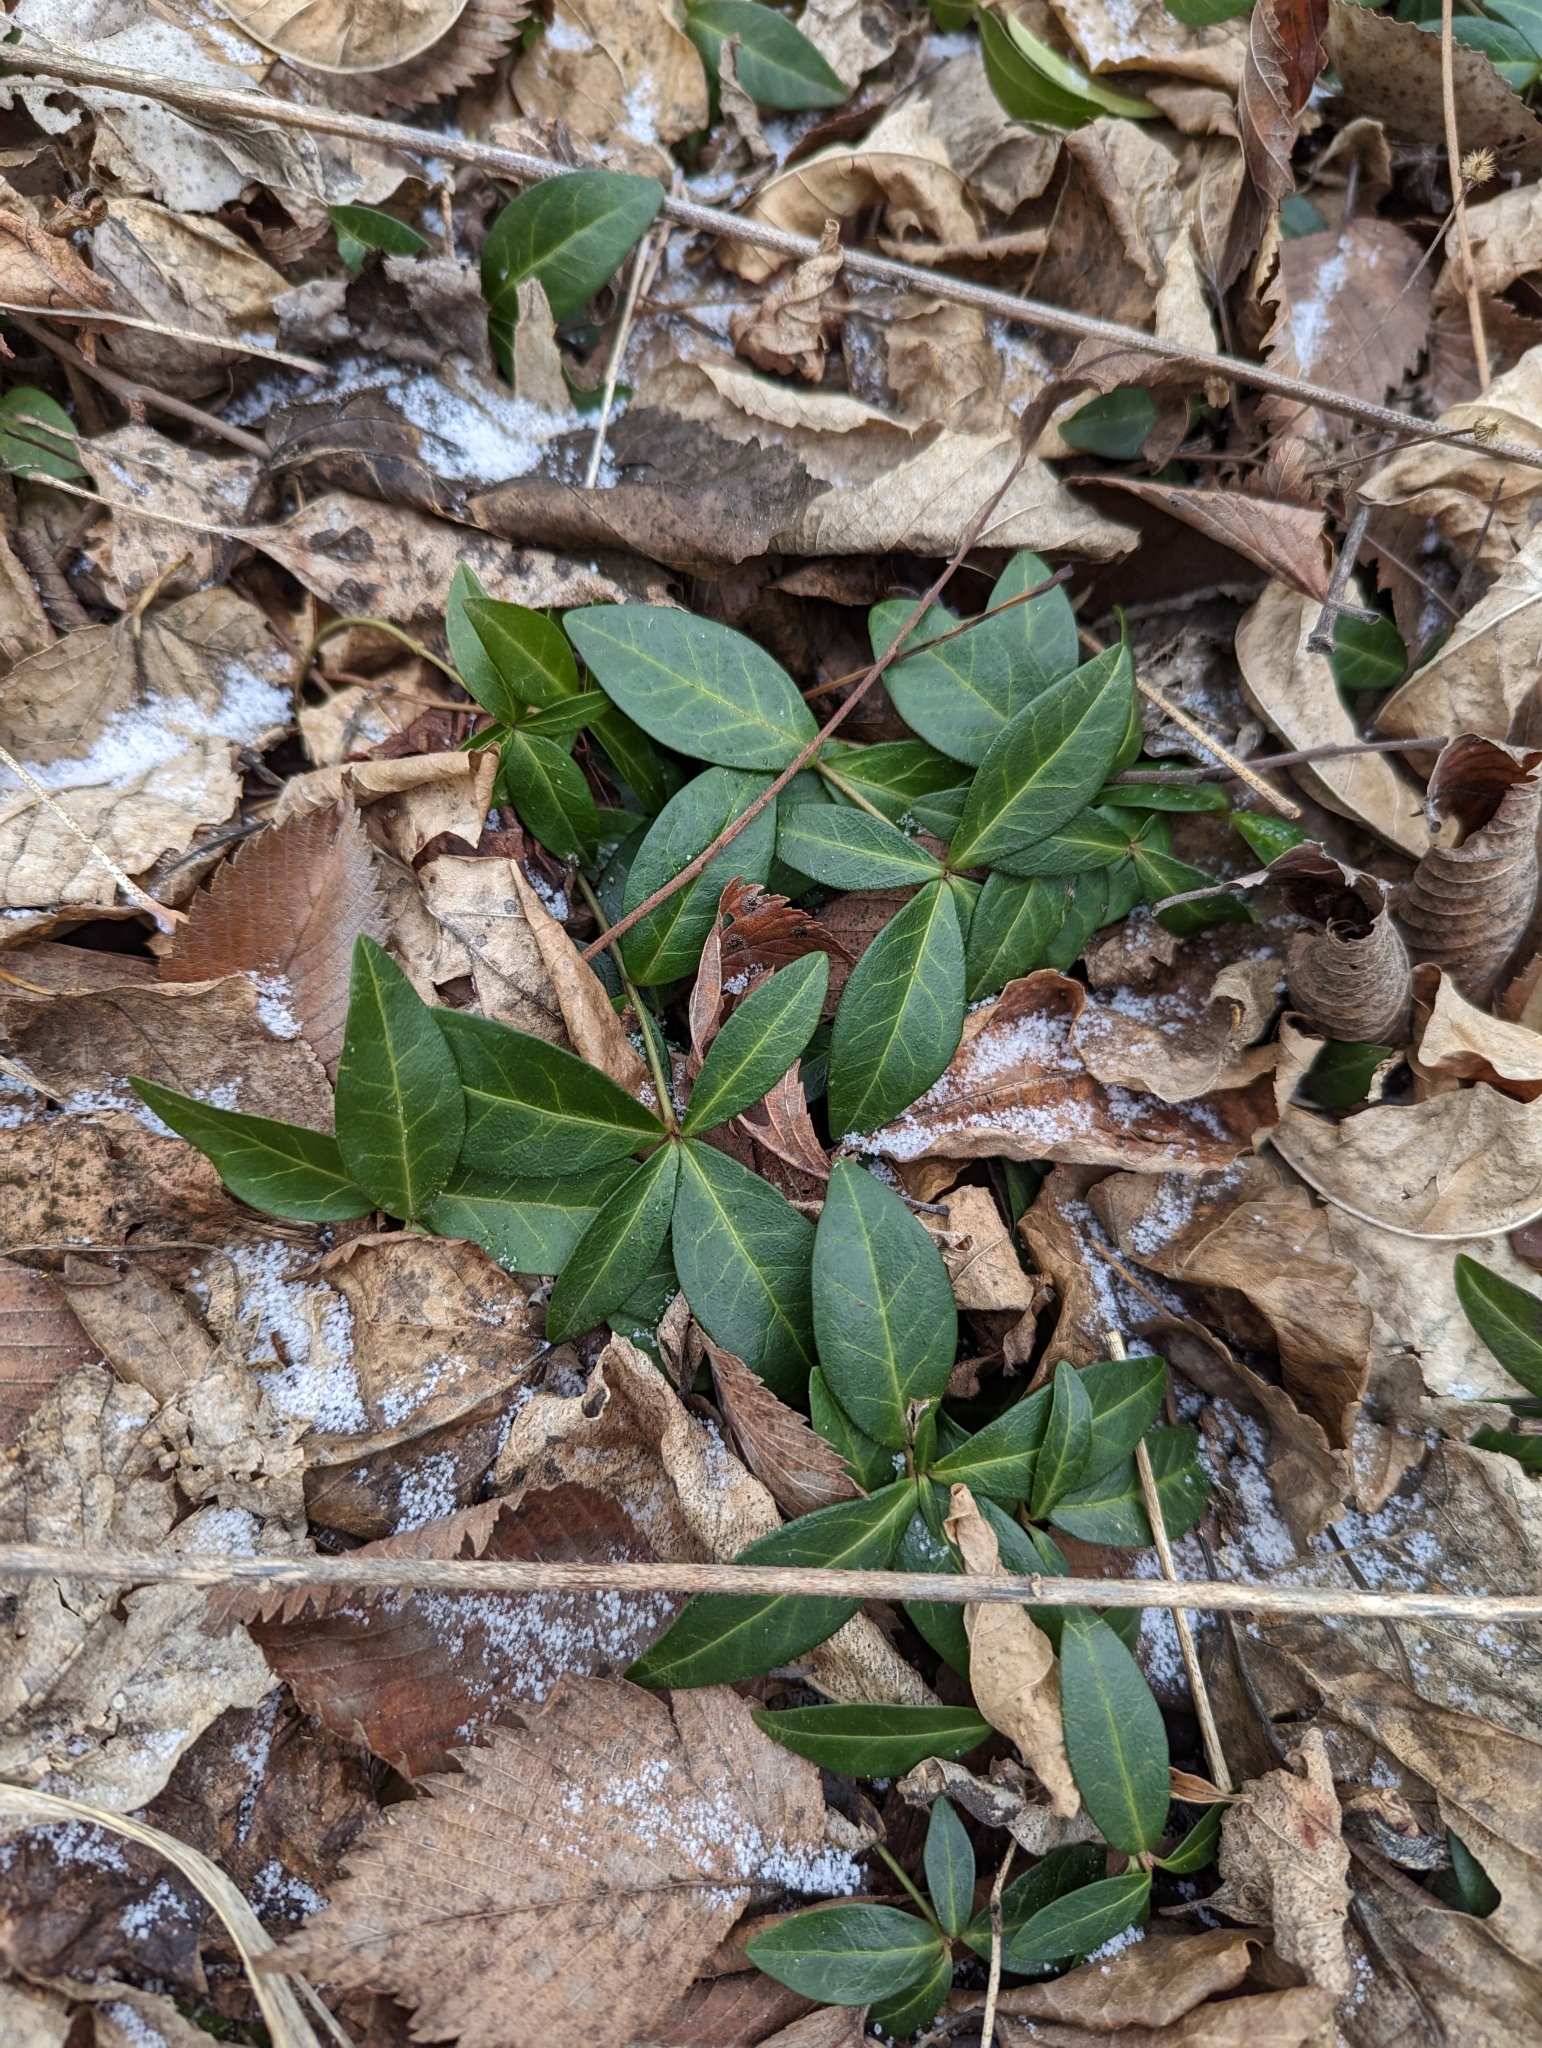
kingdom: Plantae
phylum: Tracheophyta
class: Magnoliopsida
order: Gentianales
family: Apocynaceae
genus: Vinca
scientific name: Vinca minor
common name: Lesser periwinkle
